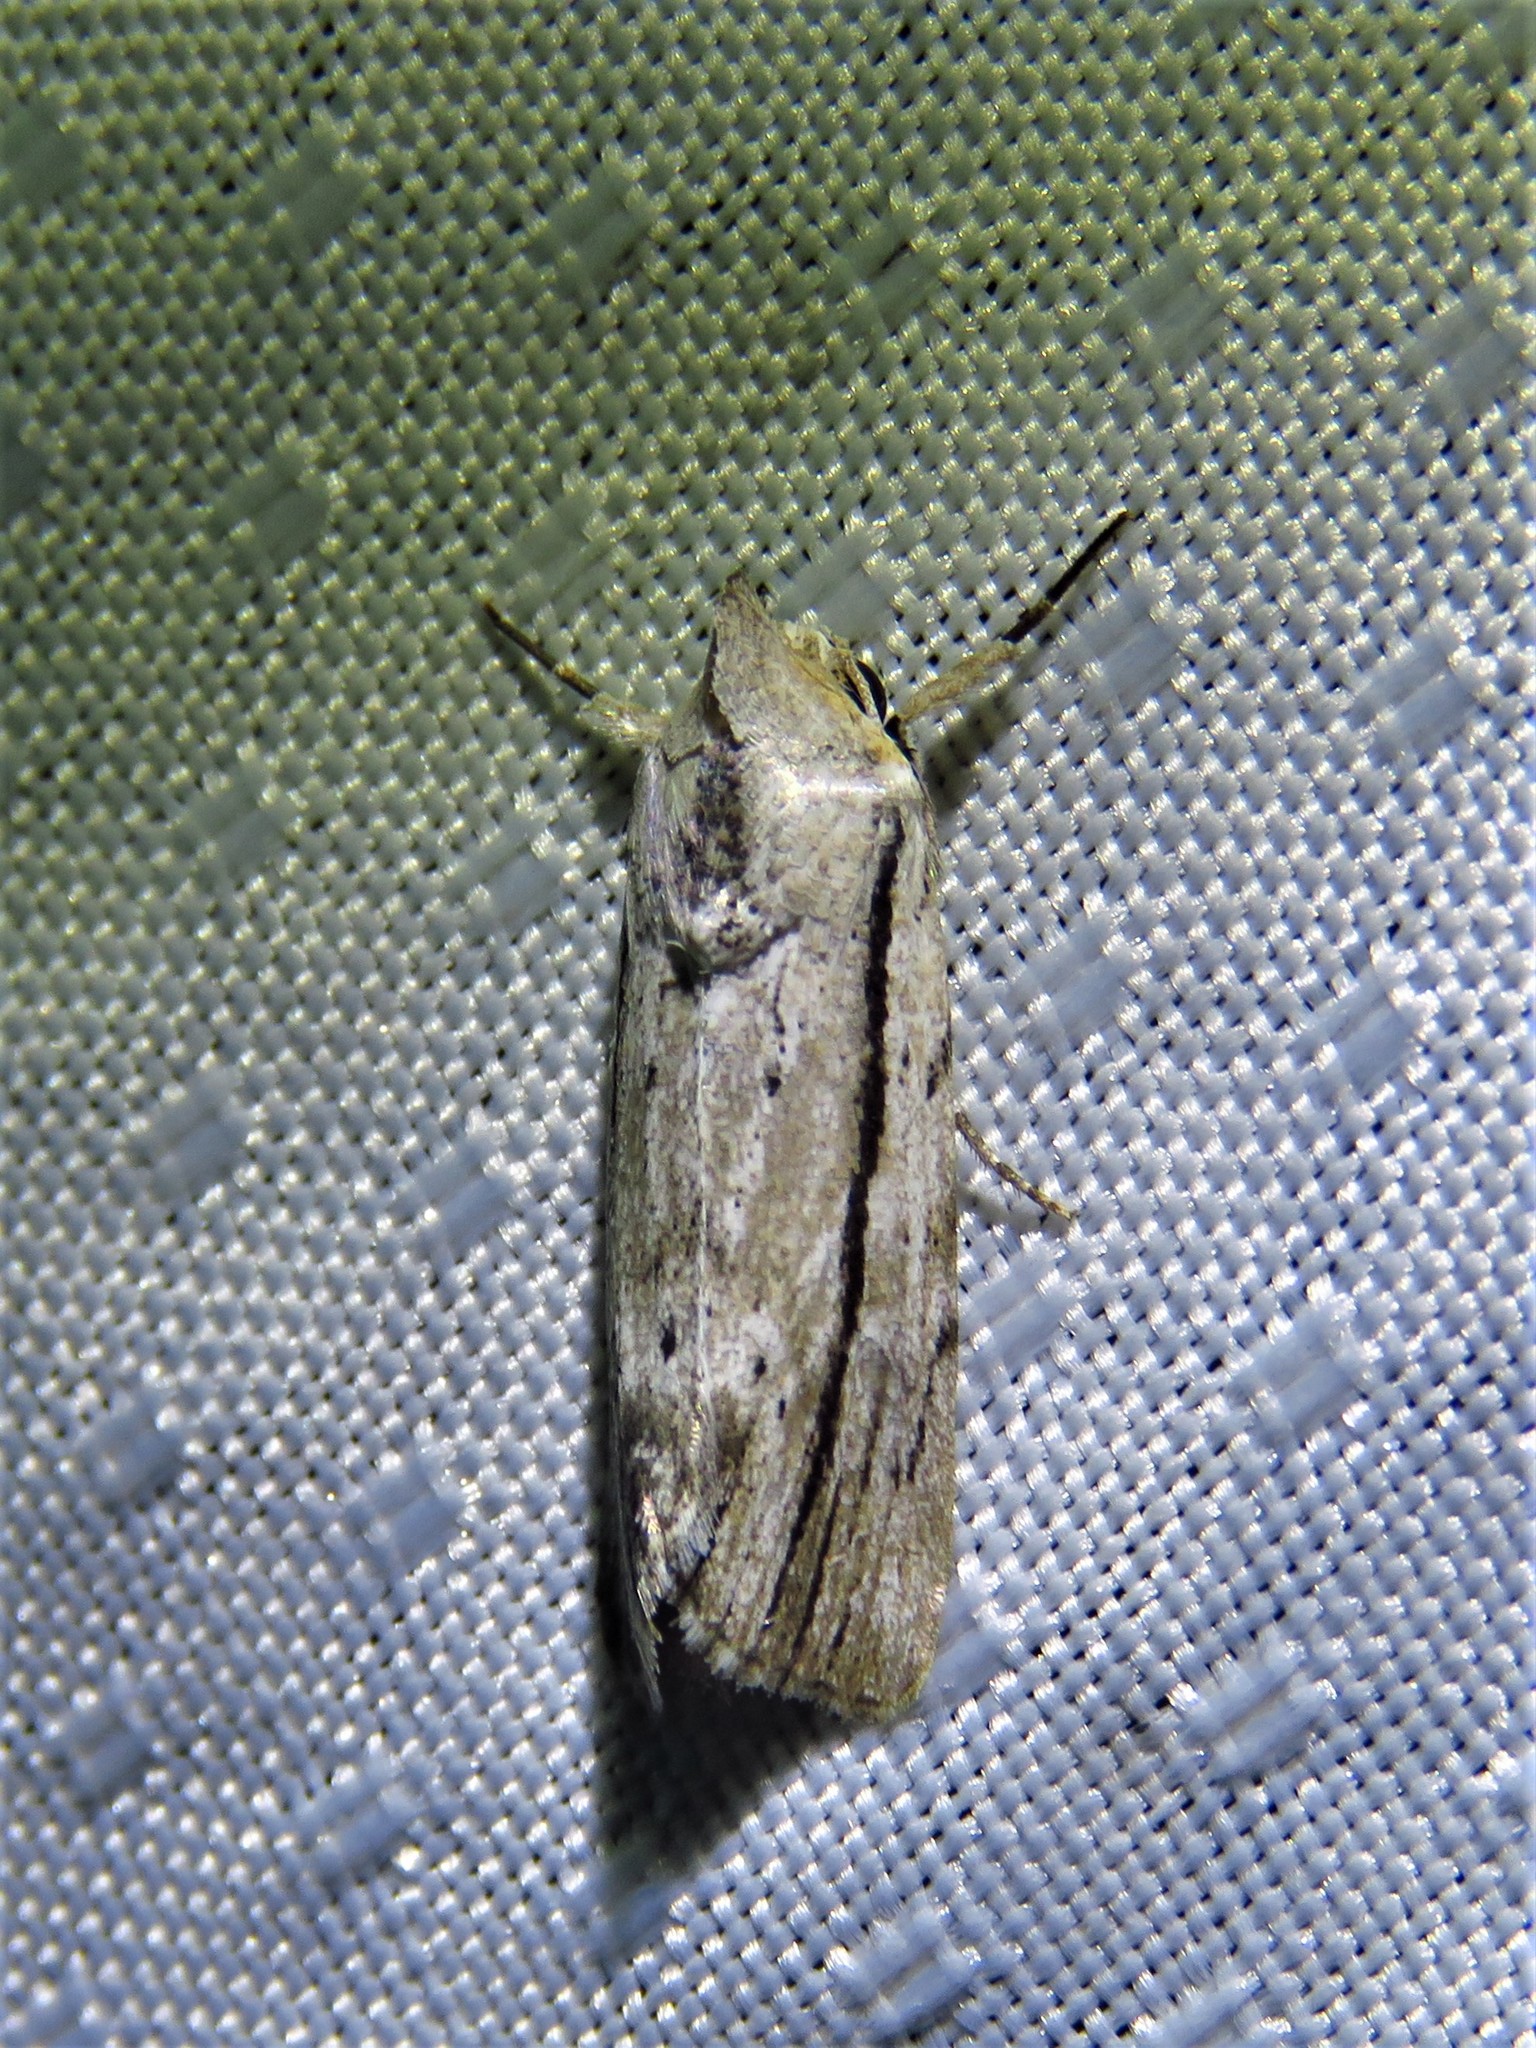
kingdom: Animalia
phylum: Arthropoda
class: Insecta
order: Lepidoptera
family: Noctuidae
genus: Catabenoides
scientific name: Catabenoides terminellus
